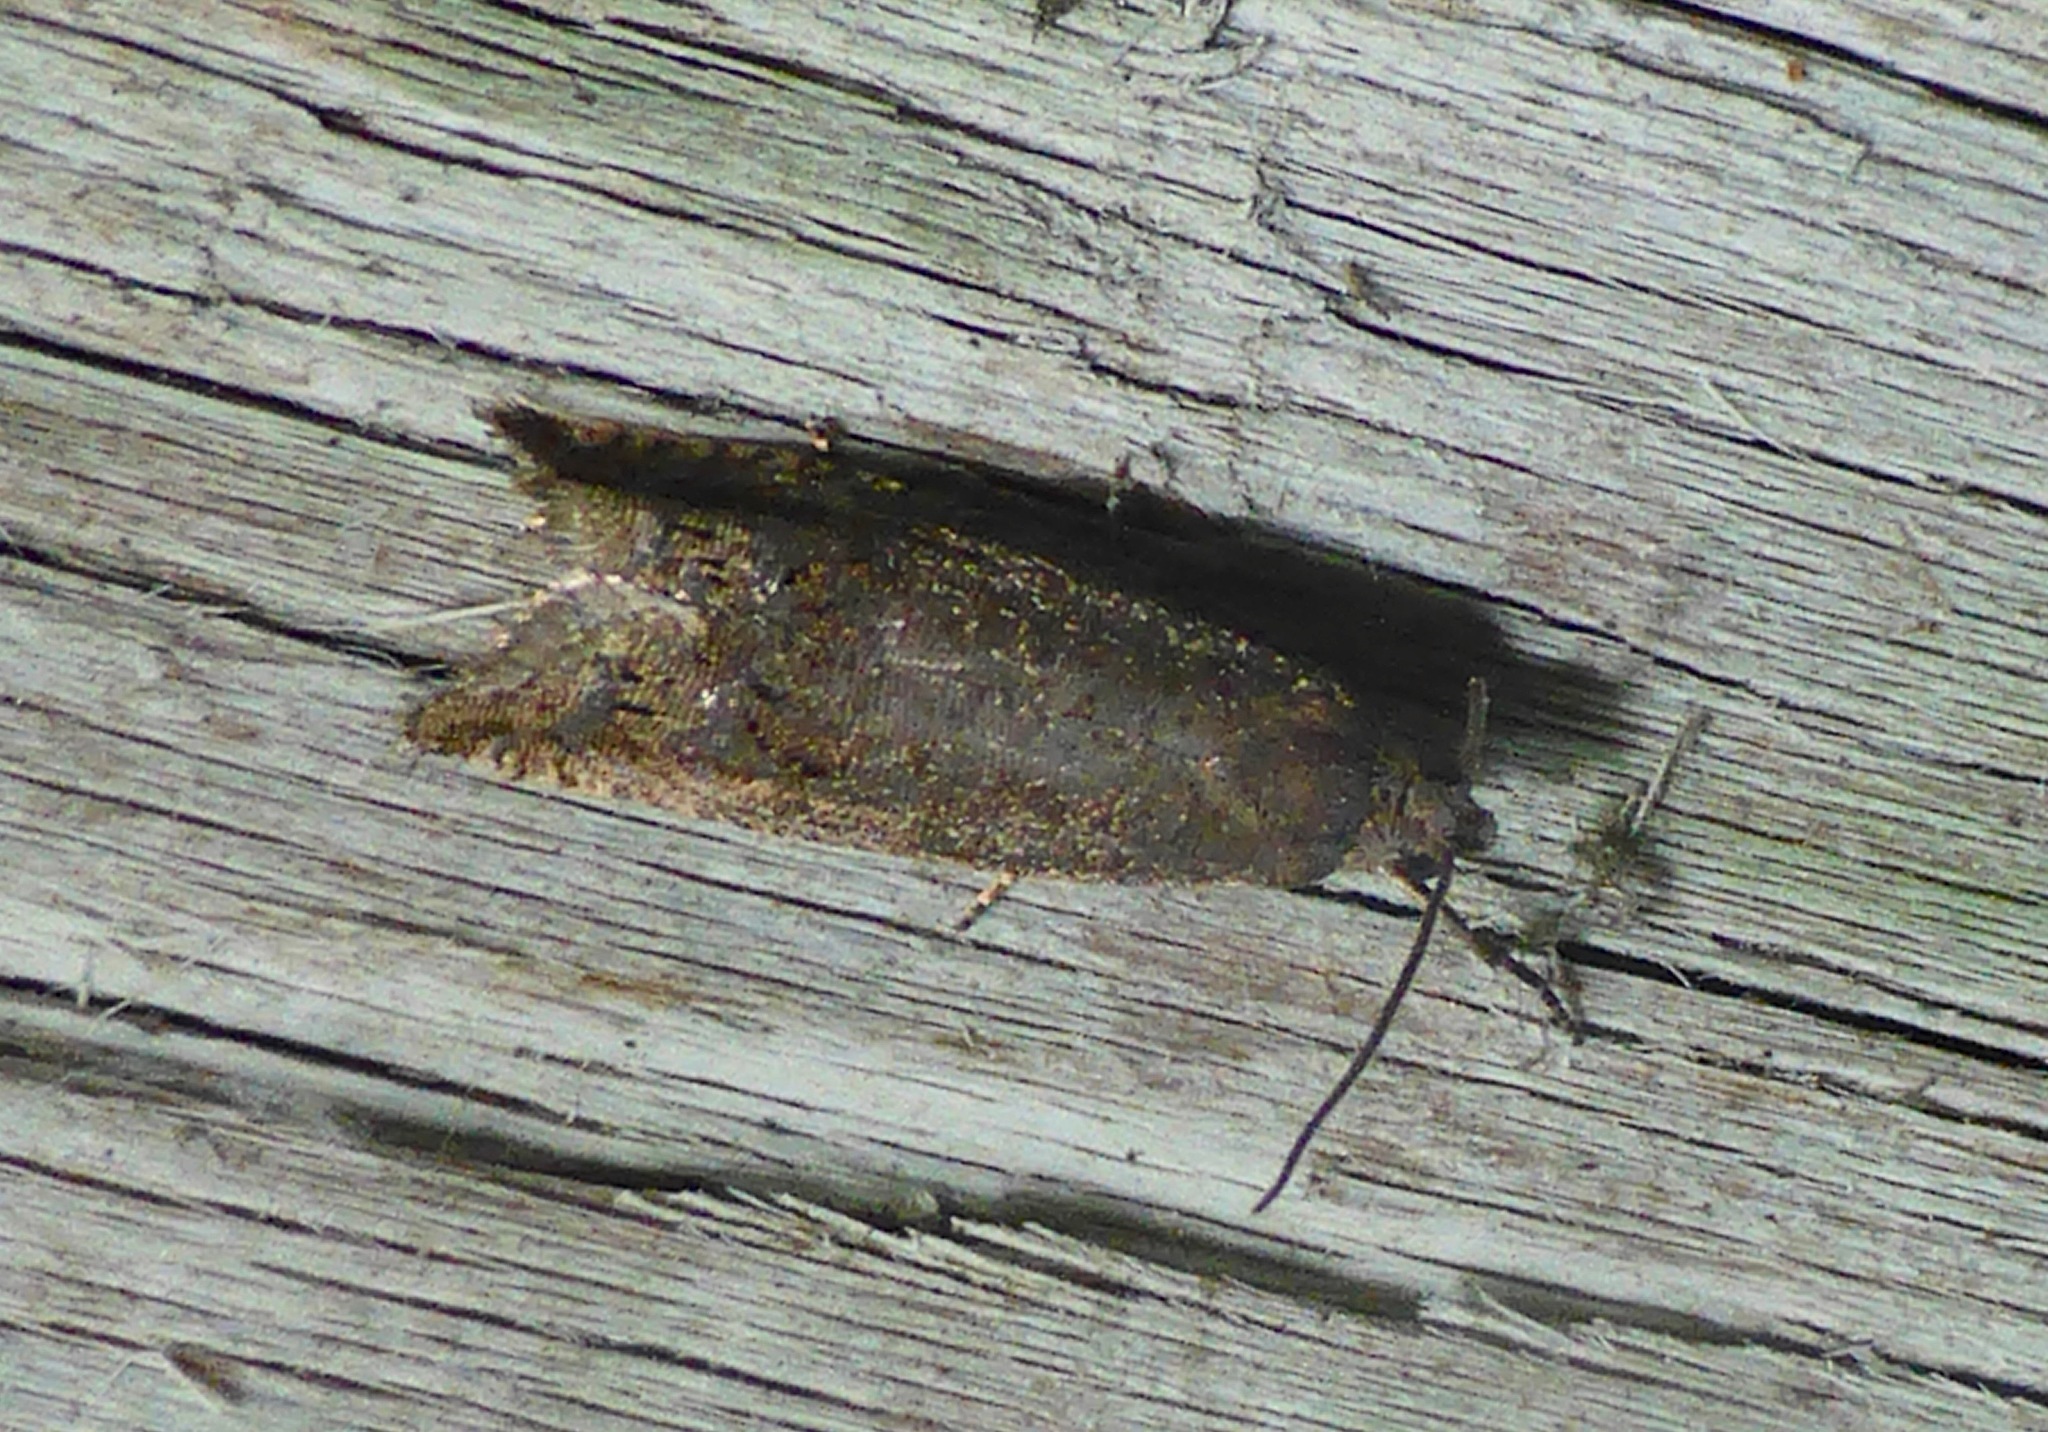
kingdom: Animalia
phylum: Arthropoda
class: Insecta
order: Lepidoptera
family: Tortricidae
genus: Cydia
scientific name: Cydia succedana
